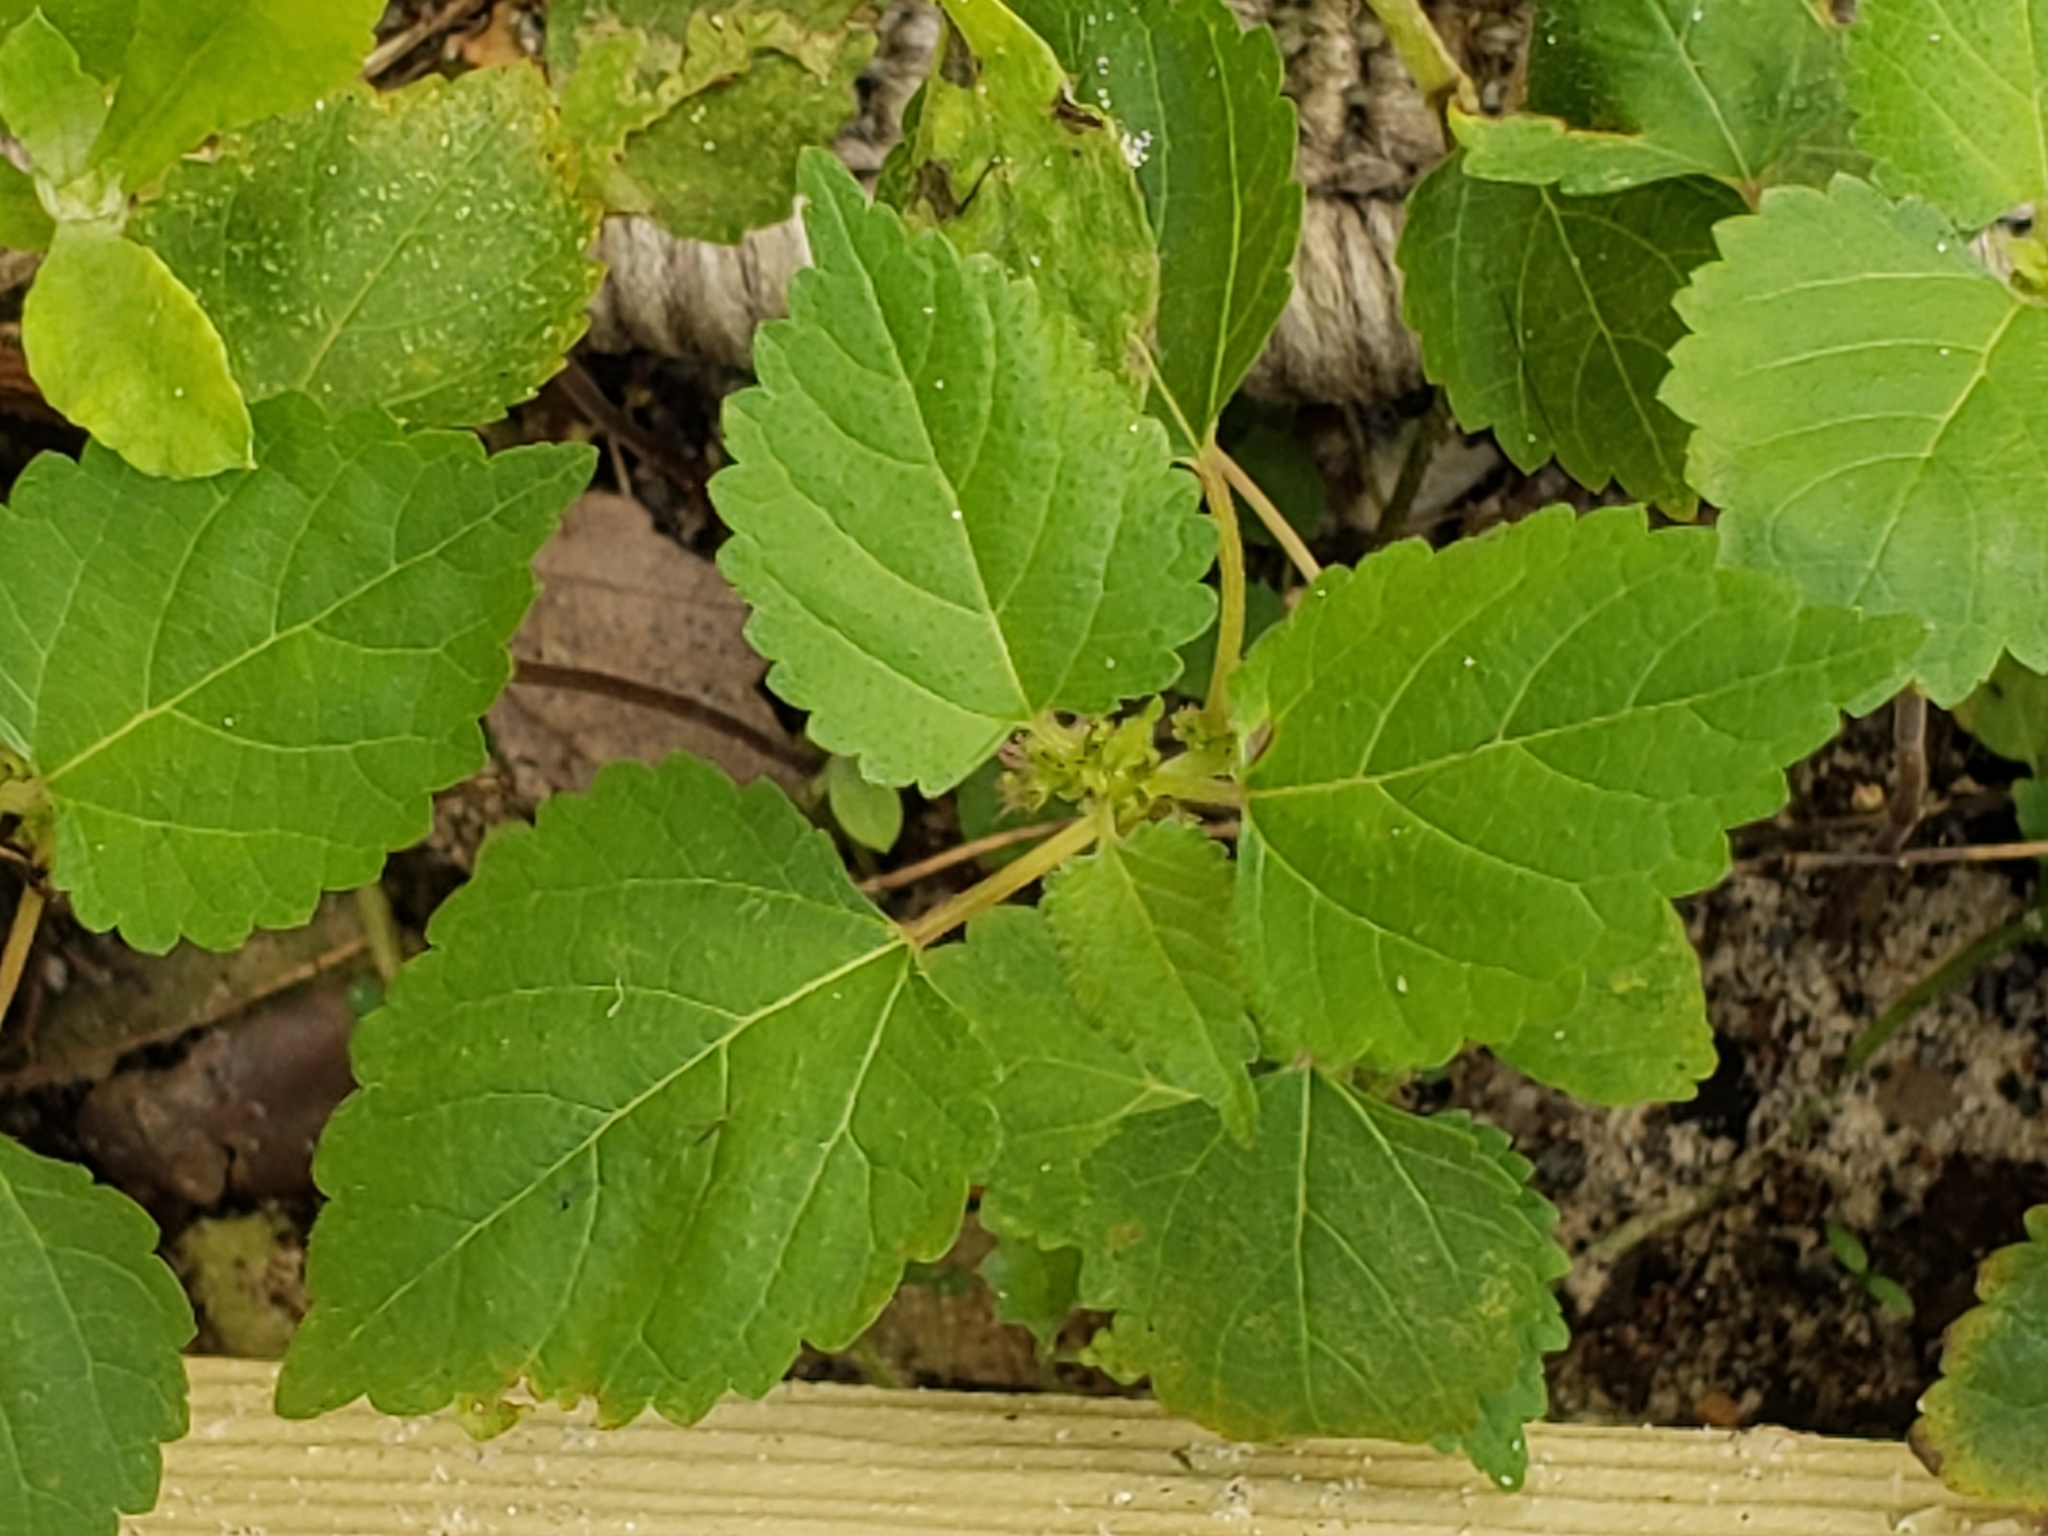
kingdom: Plantae
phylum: Tracheophyta
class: Magnoliopsida
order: Rosales
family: Moraceae
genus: Fatoua
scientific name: Fatoua villosa
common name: Hairy crabweed
